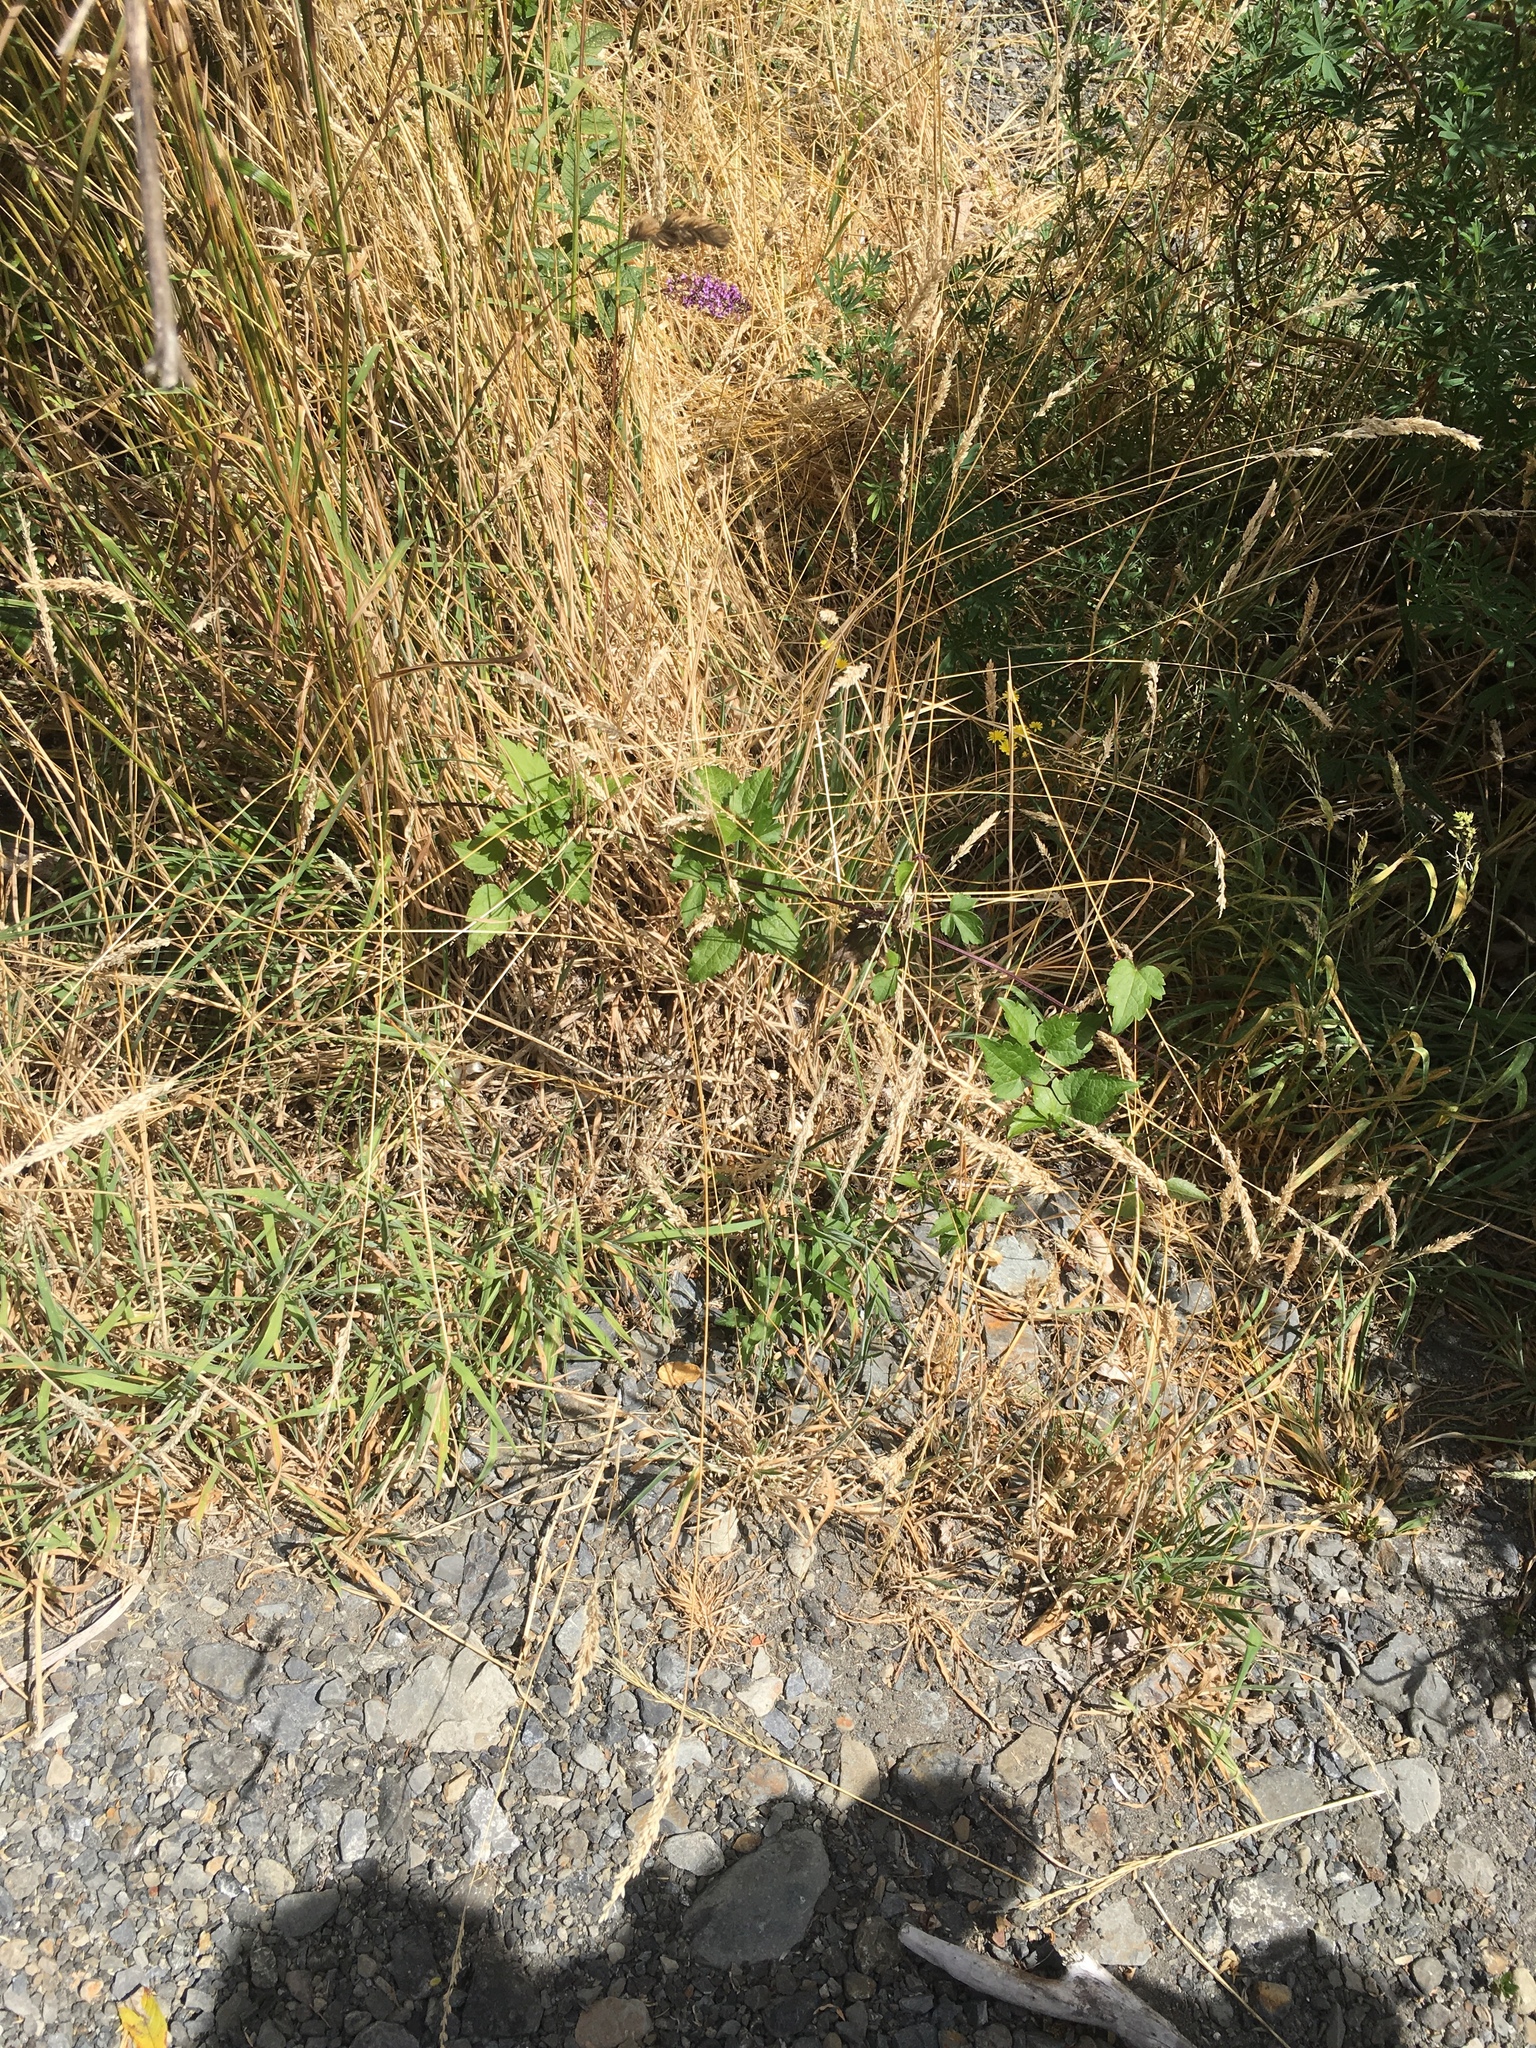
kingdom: Plantae
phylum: Tracheophyta
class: Magnoliopsida
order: Ranunculales
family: Ranunculaceae
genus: Clematis
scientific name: Clematis vitalba
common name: Evergreen clematis
